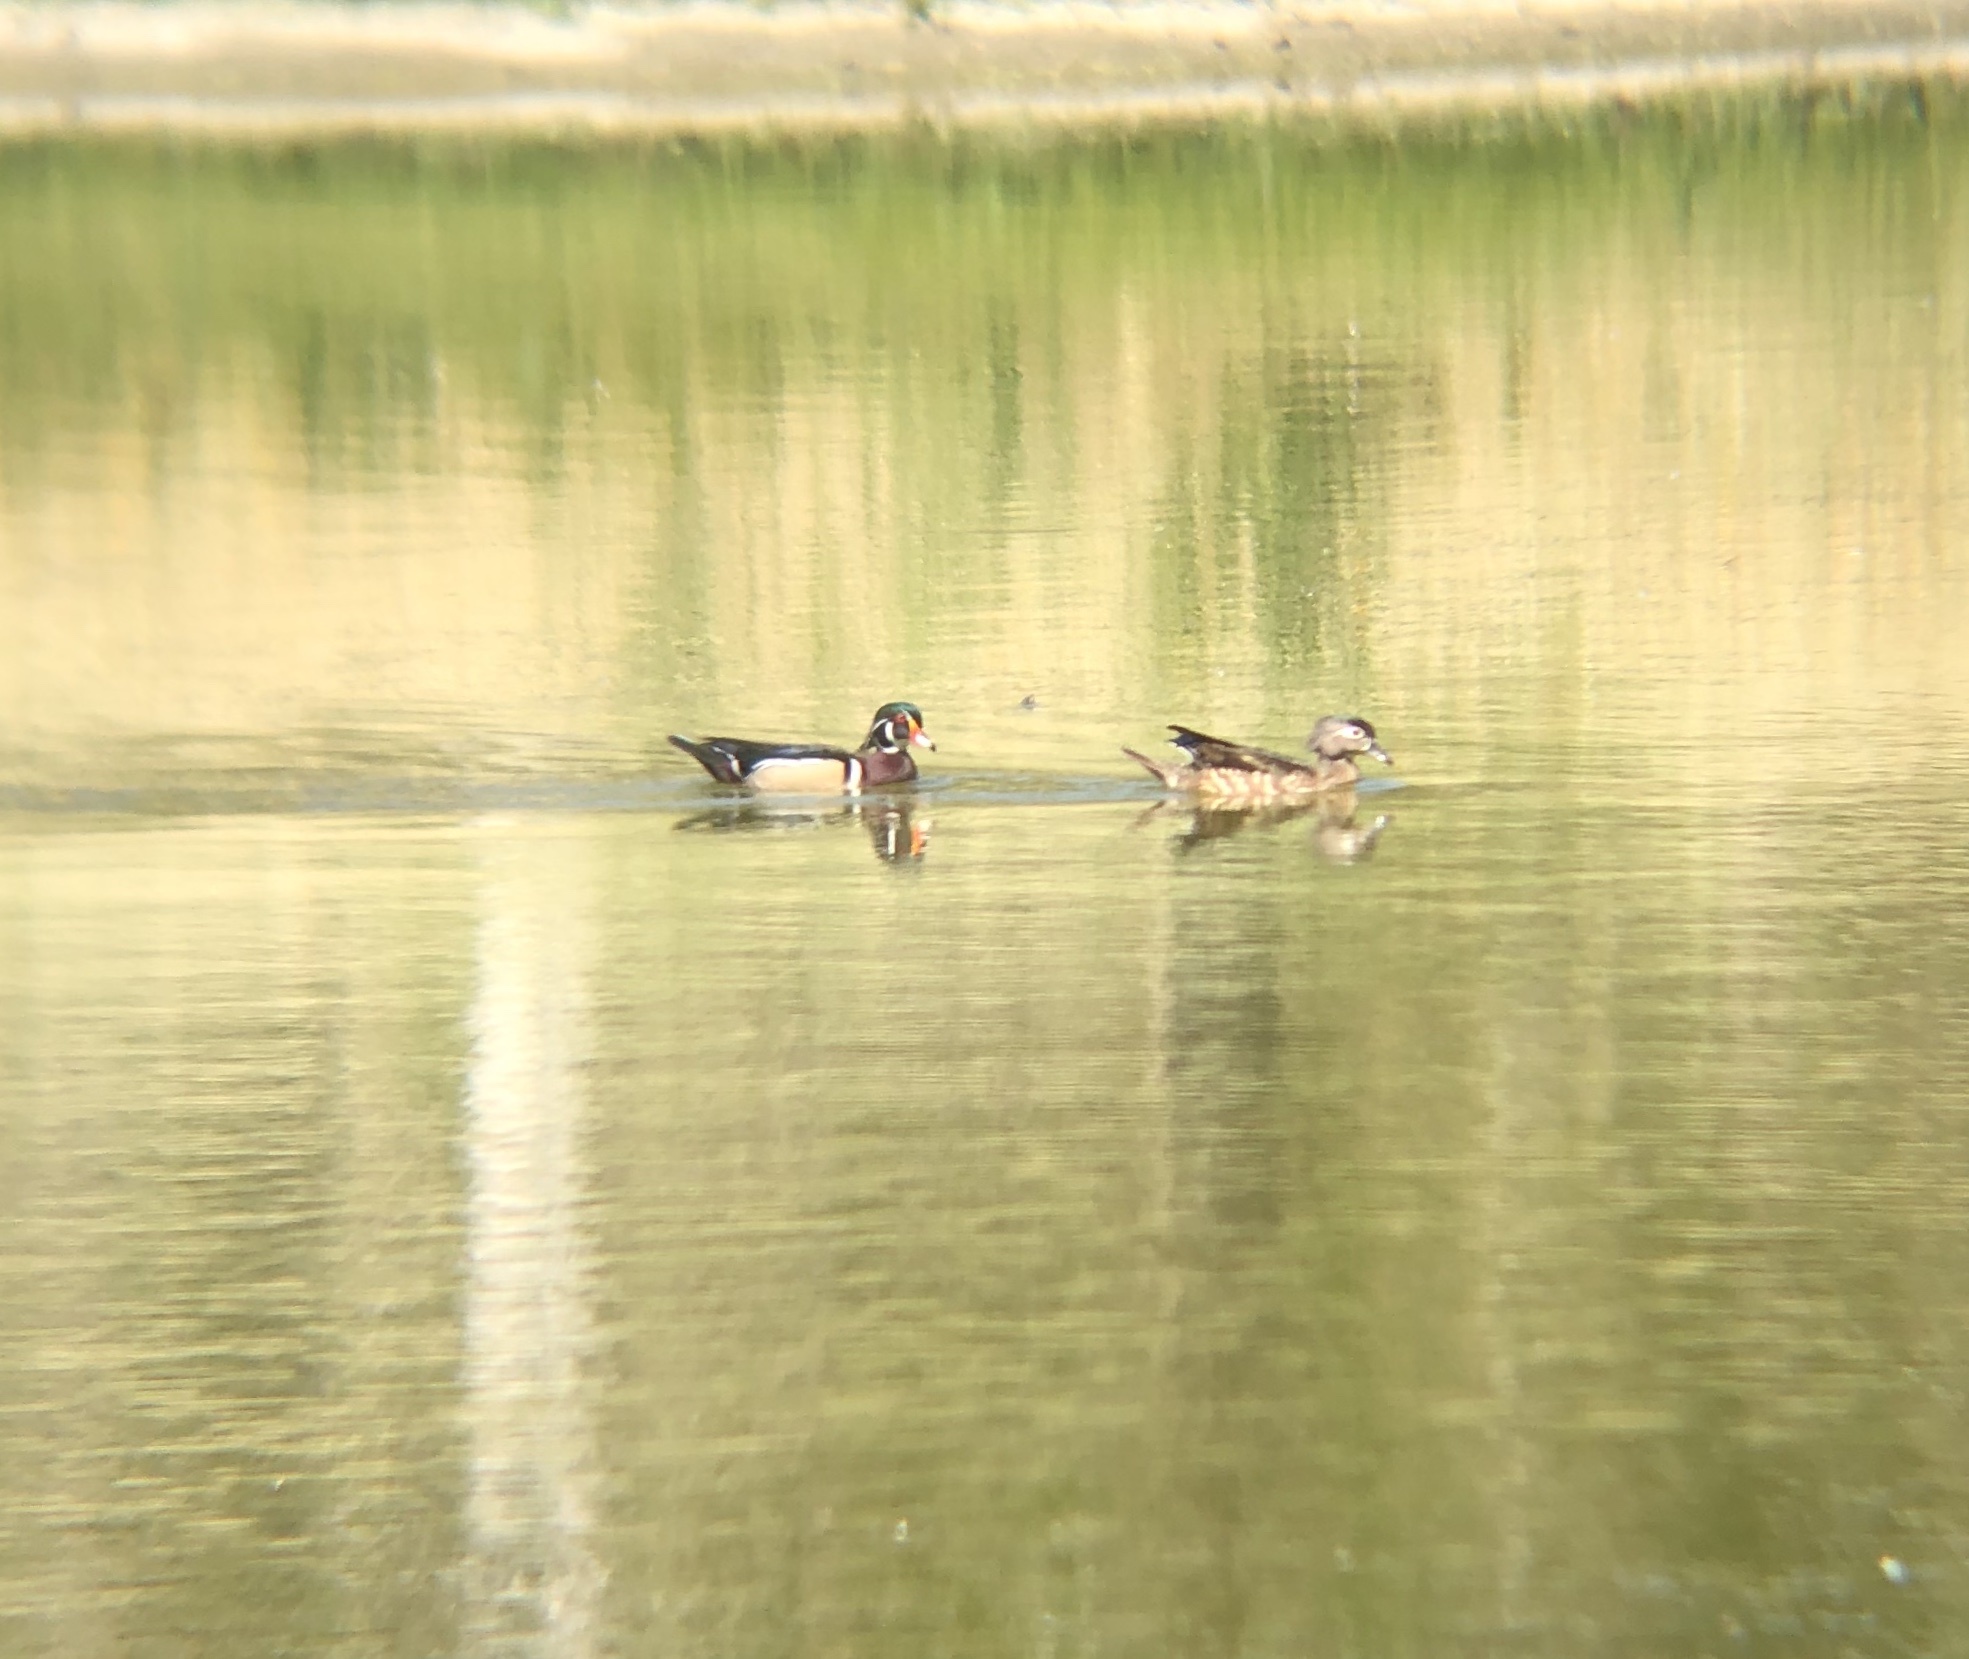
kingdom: Animalia
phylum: Chordata
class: Aves
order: Anseriformes
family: Anatidae
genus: Aix
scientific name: Aix sponsa
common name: Wood duck
